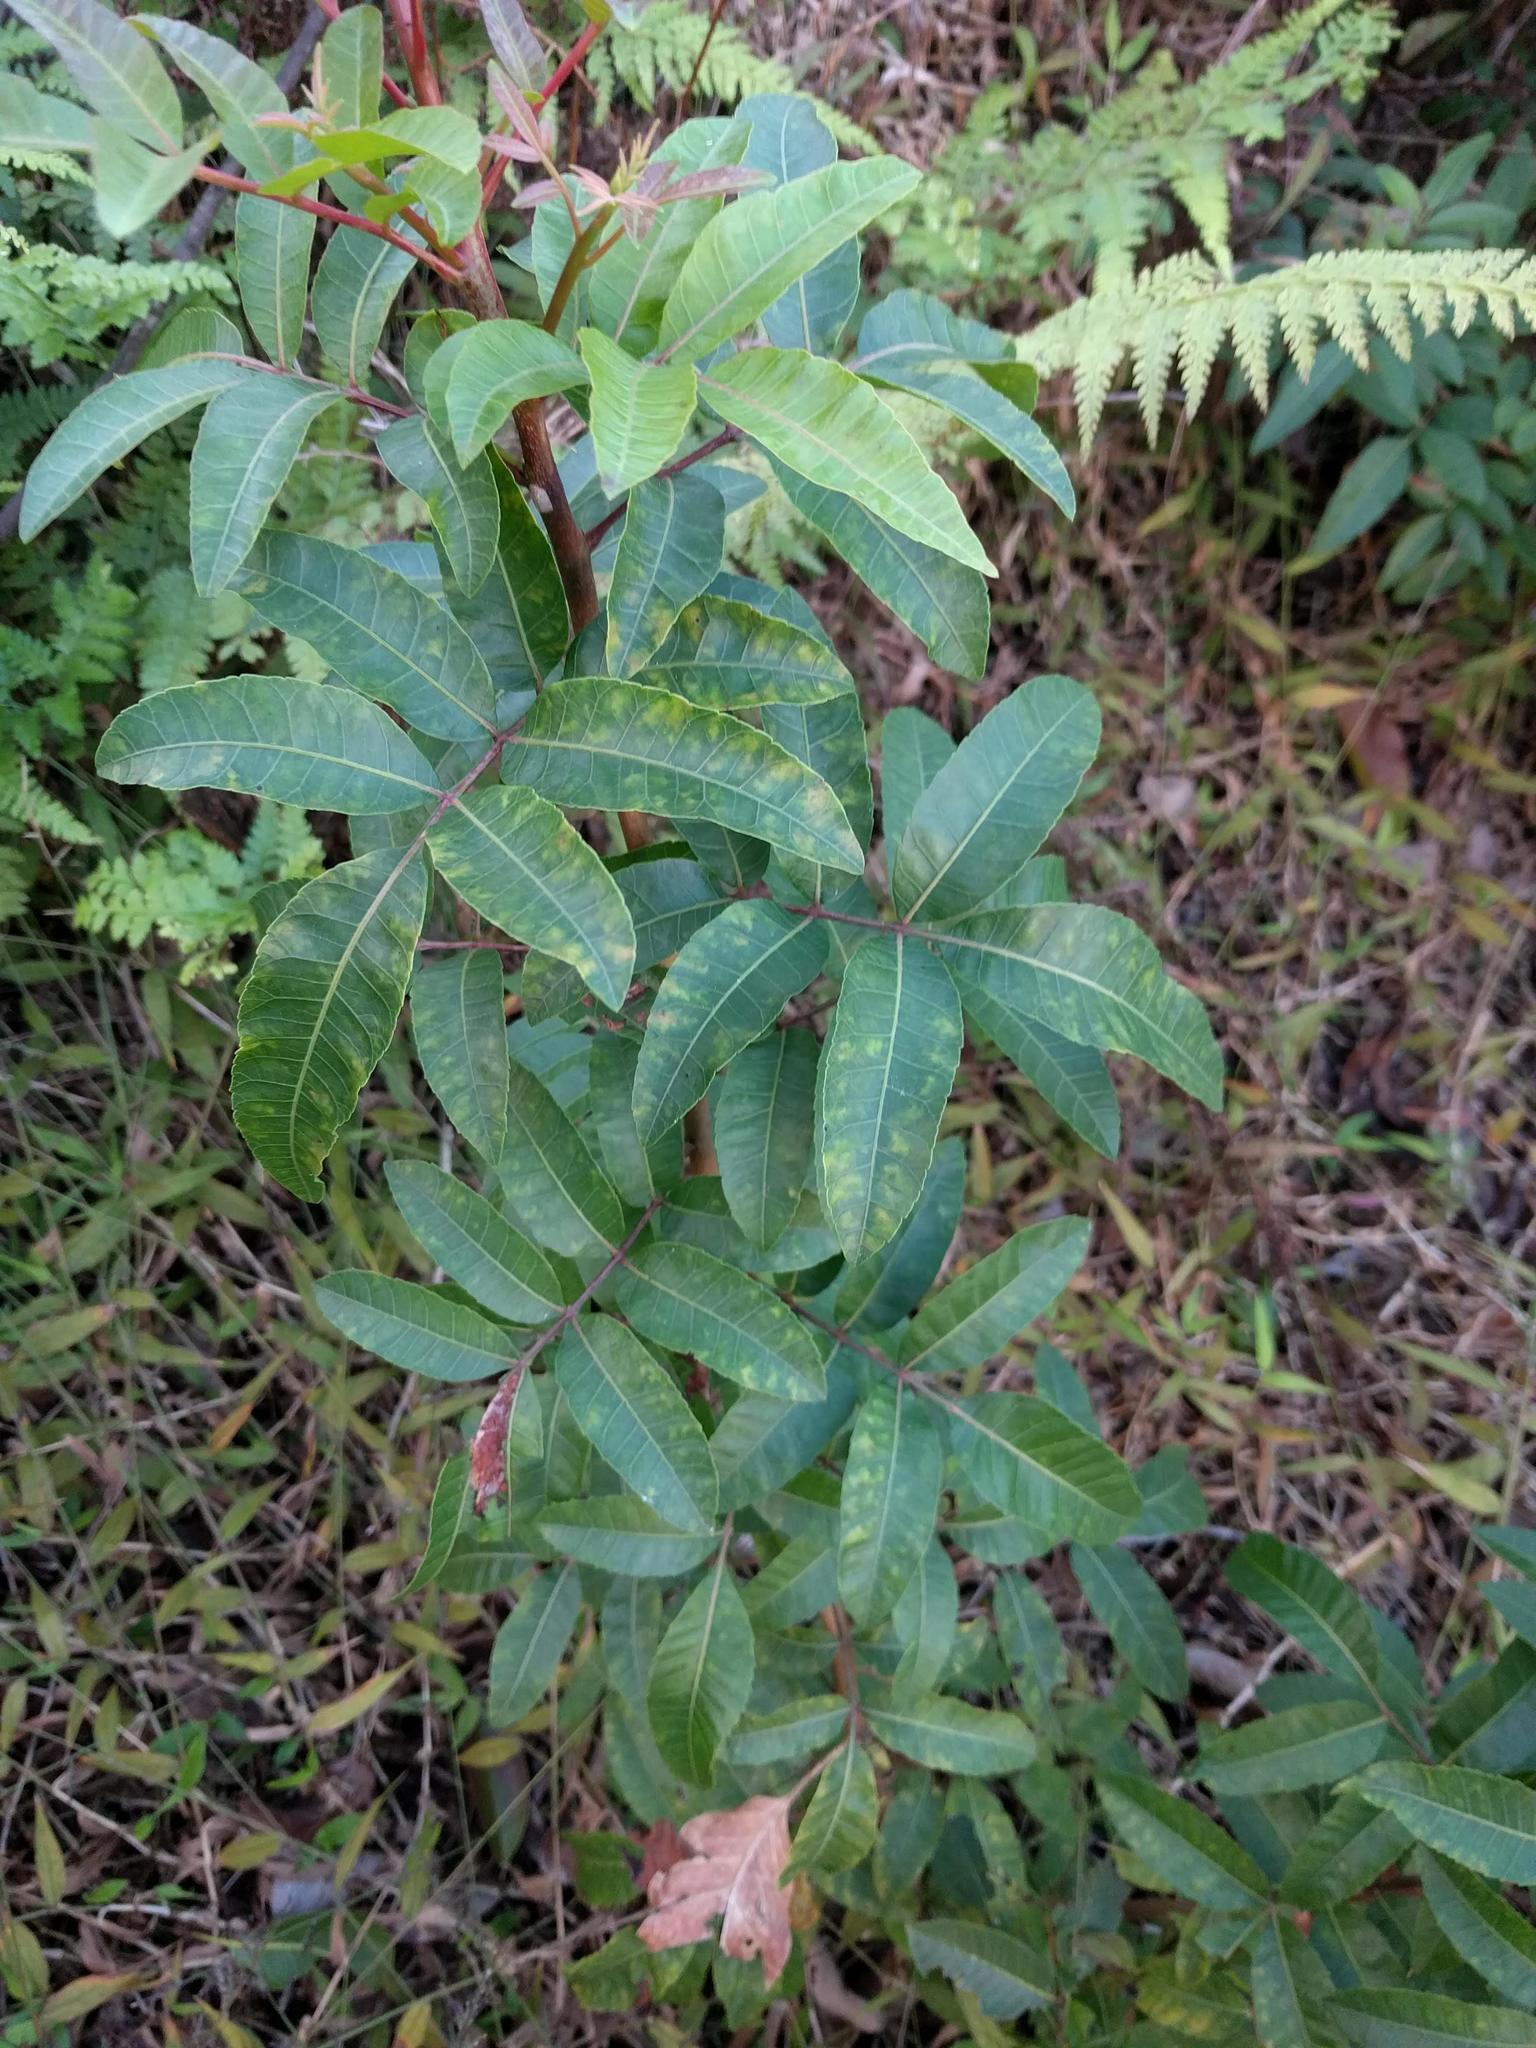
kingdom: Plantae
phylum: Tracheophyta
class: Magnoliopsida
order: Sapindales
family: Anacardiaceae
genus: Schinus
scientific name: Schinus terebinthifolia
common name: Brazilian peppertree
